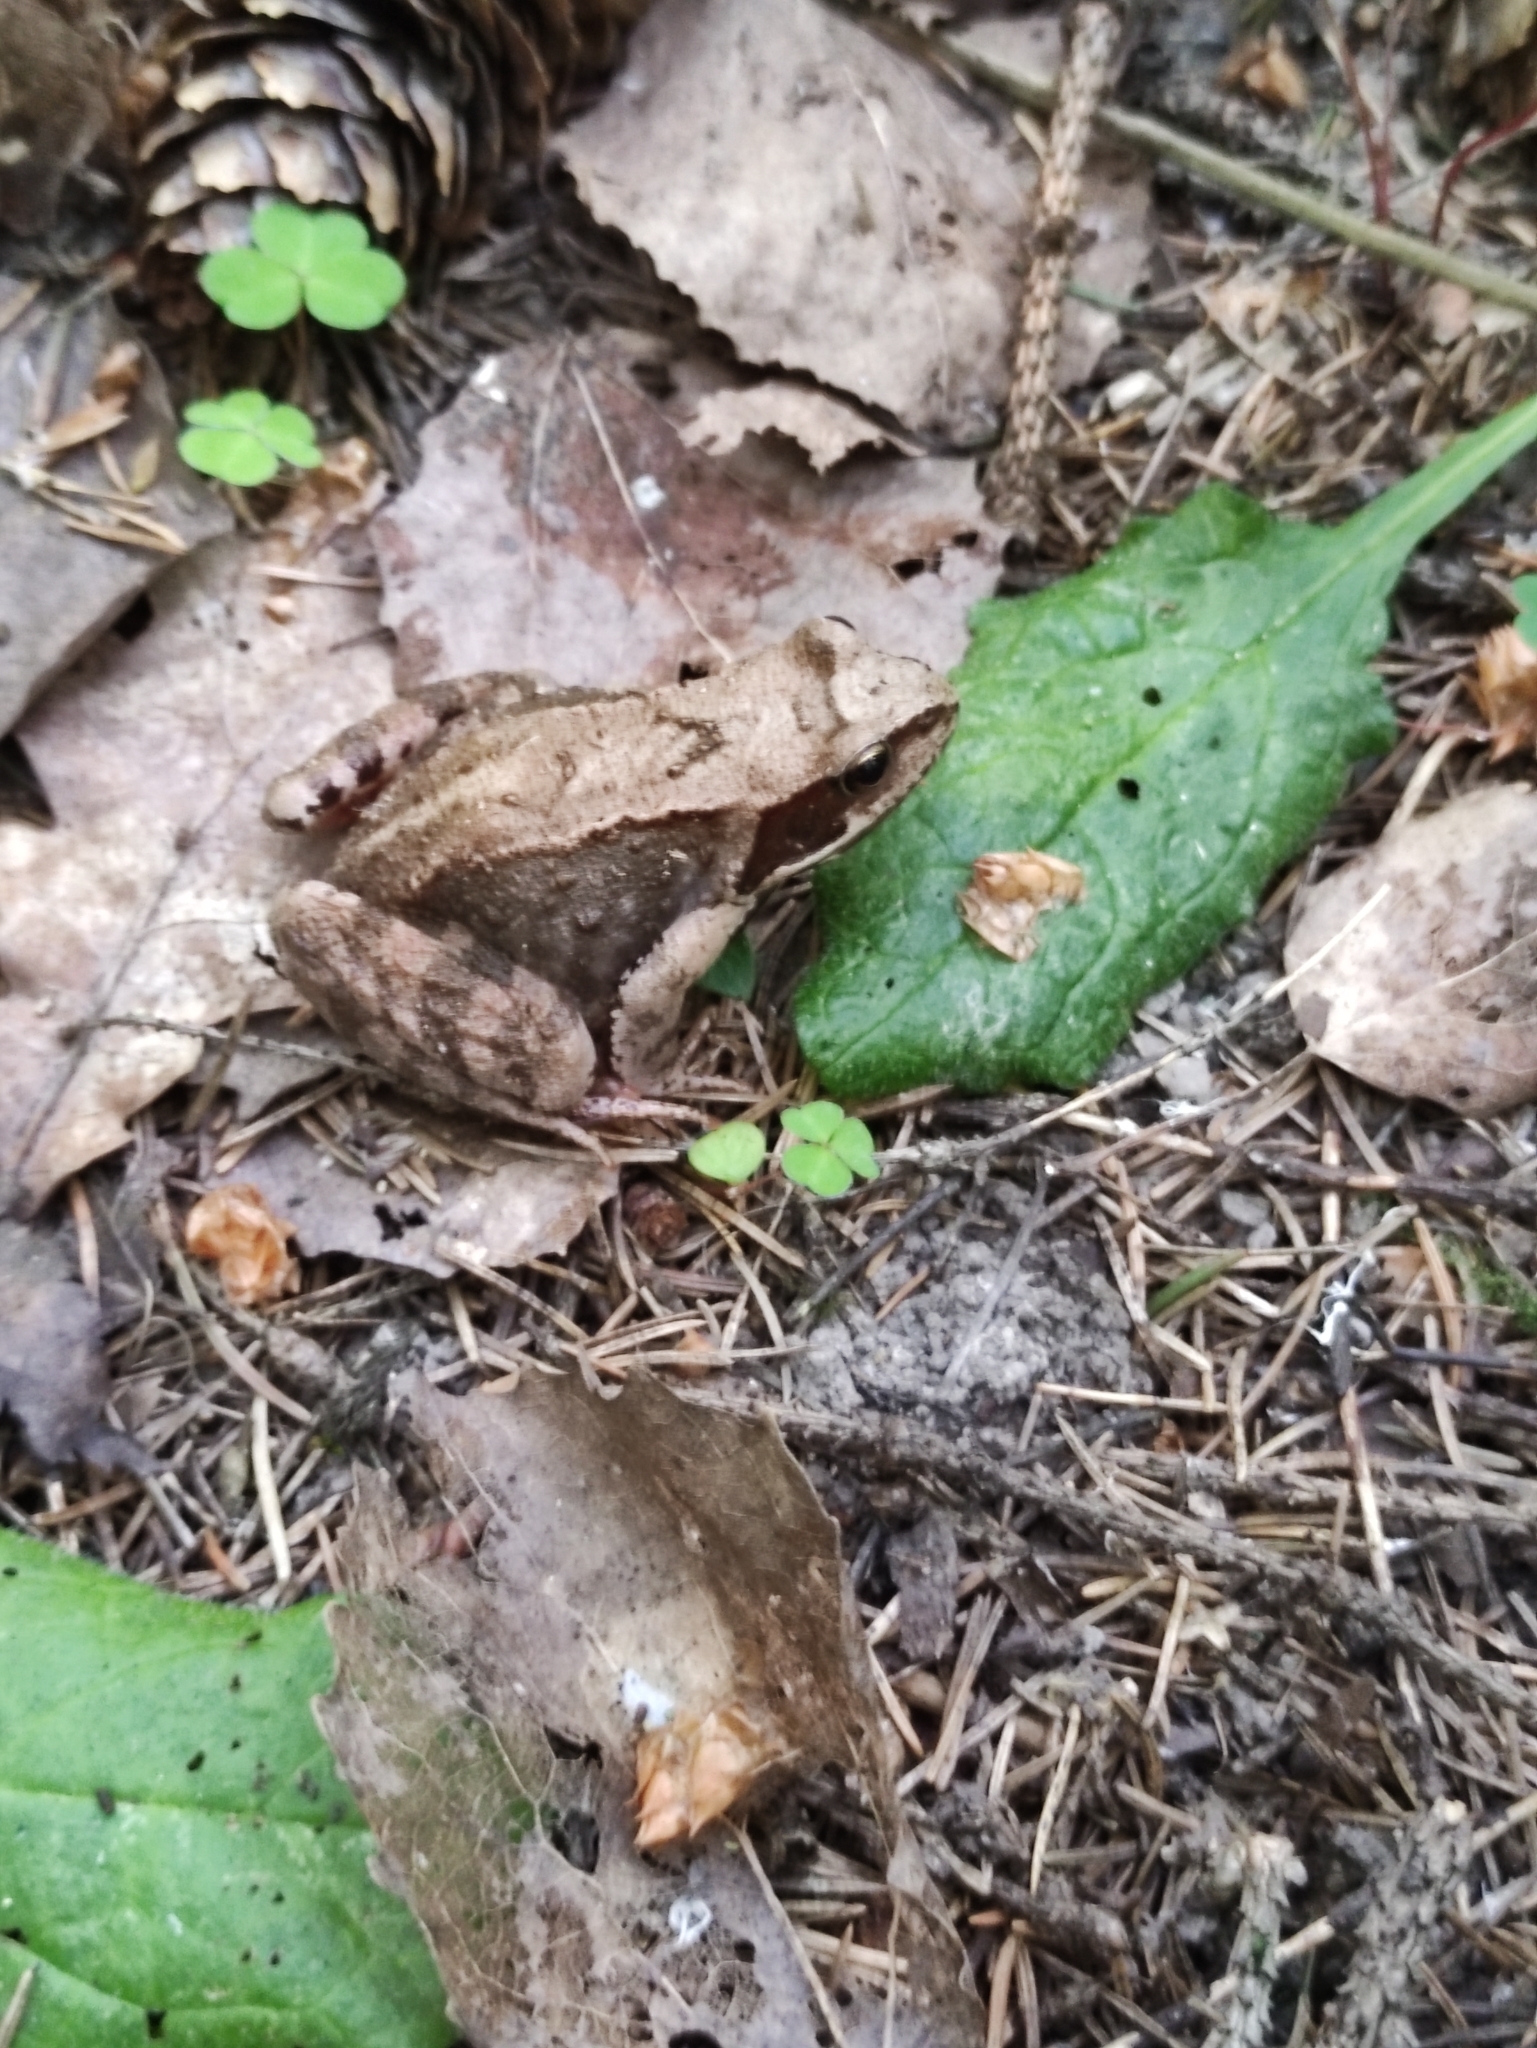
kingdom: Animalia
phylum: Chordata
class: Amphibia
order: Anura
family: Ranidae
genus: Rana
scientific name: Rana temporaria
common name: Common frog
